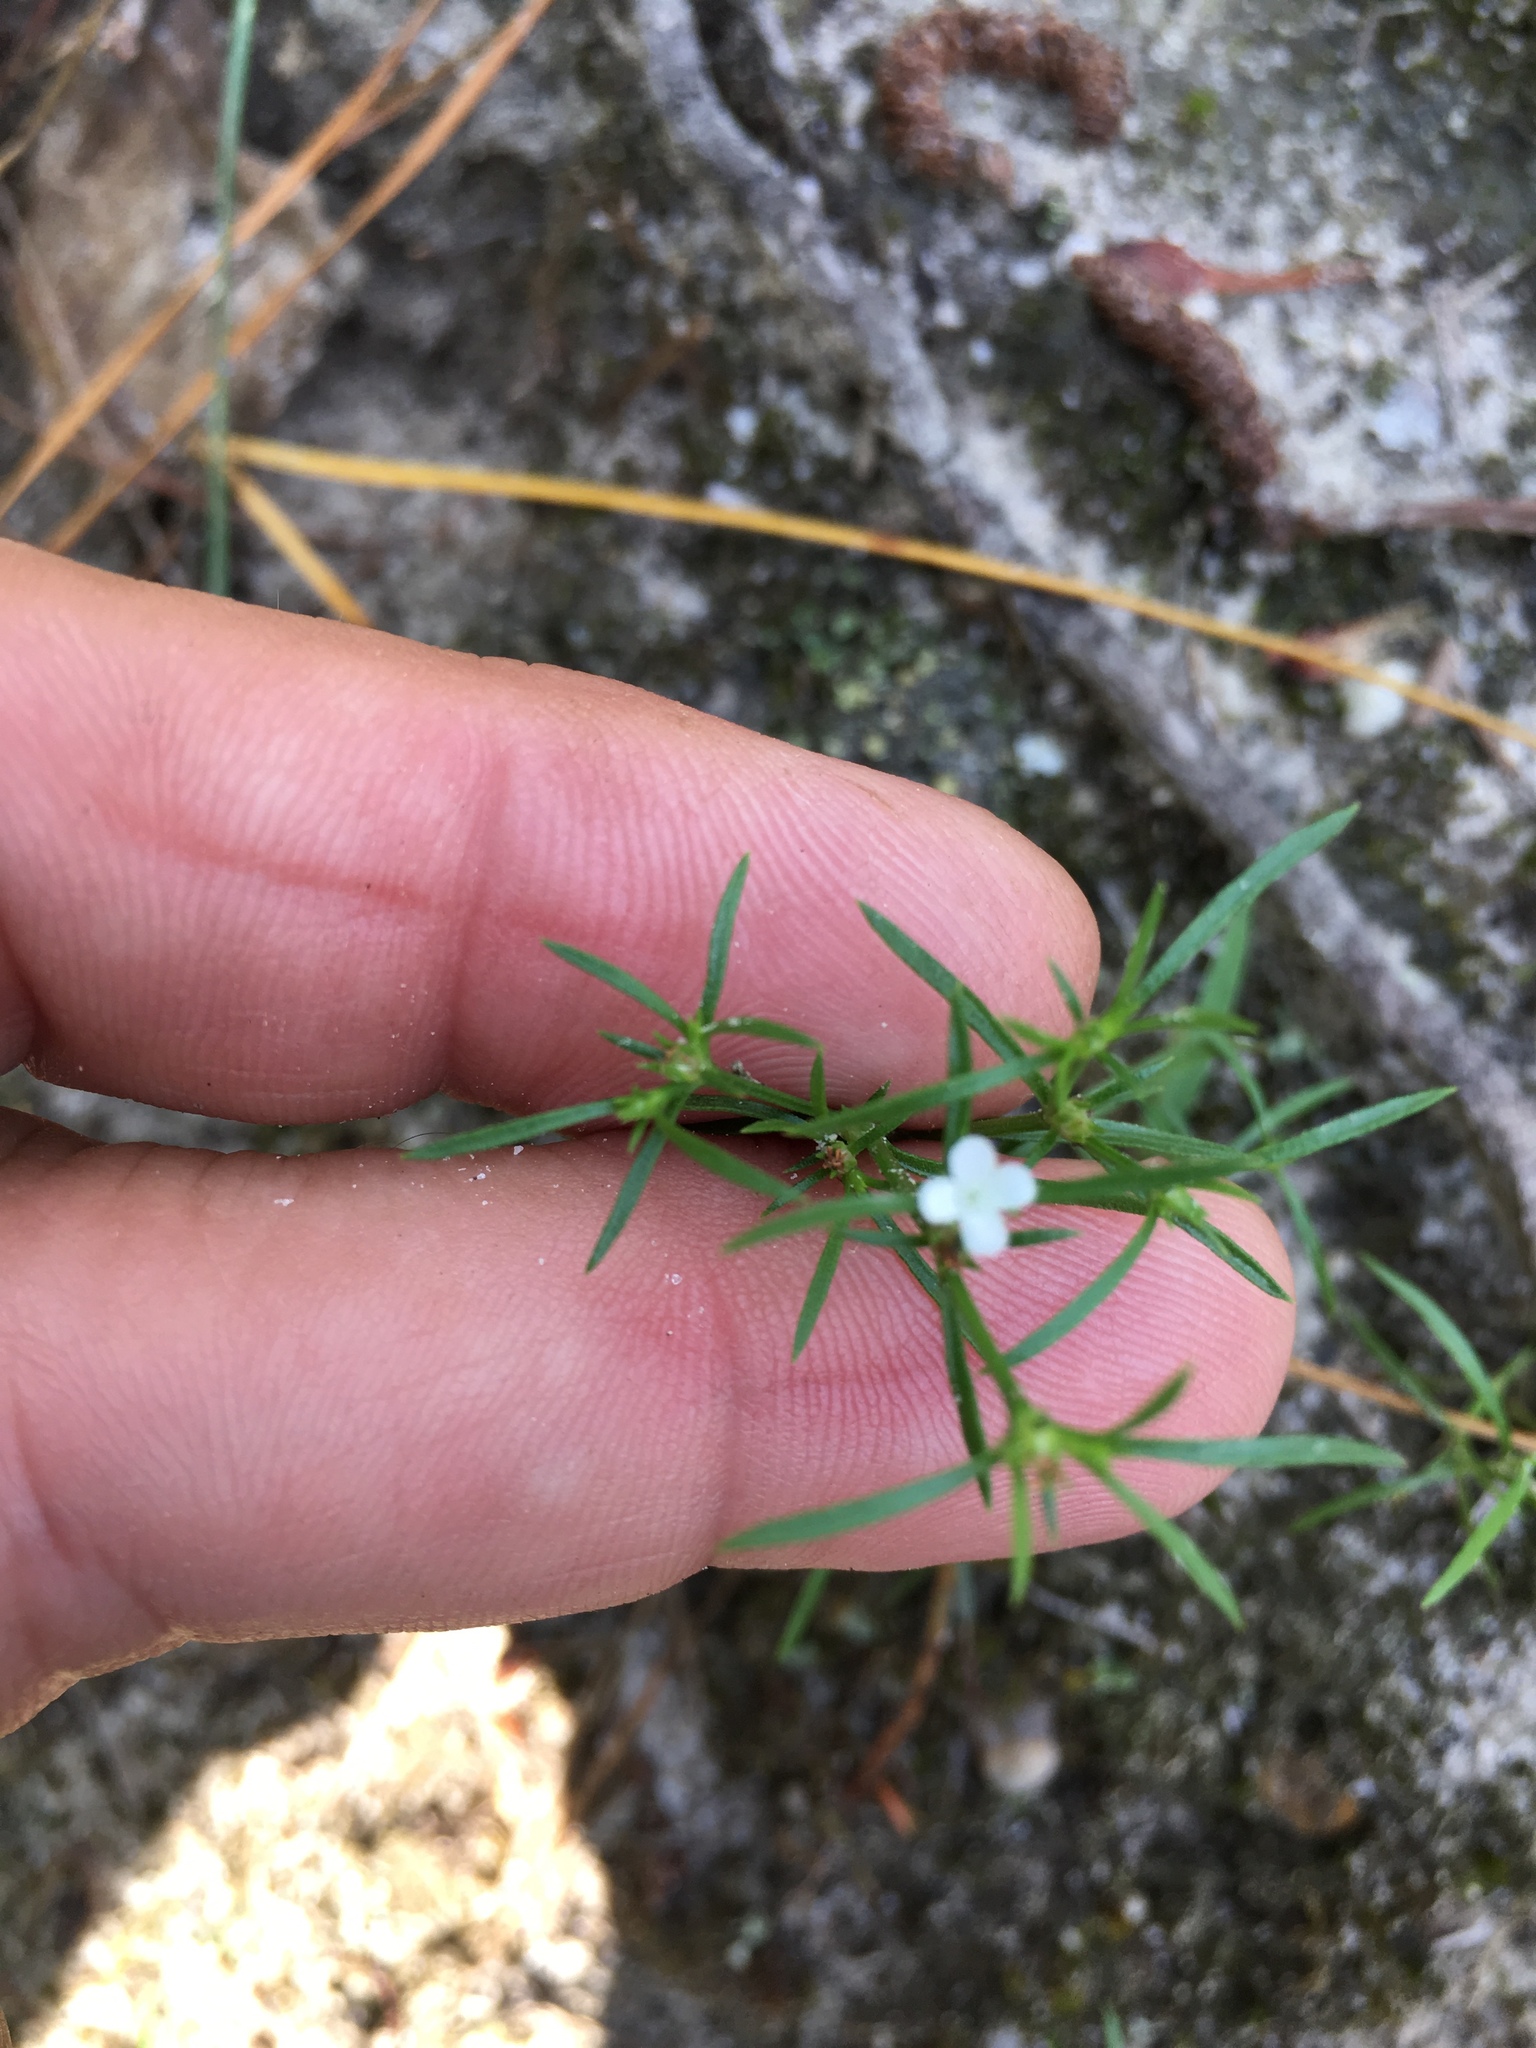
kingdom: Plantae
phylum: Tracheophyta
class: Magnoliopsida
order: Lamiales
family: Tetrachondraceae
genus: Polypremum
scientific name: Polypremum procumbens
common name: Juniper-leaf
